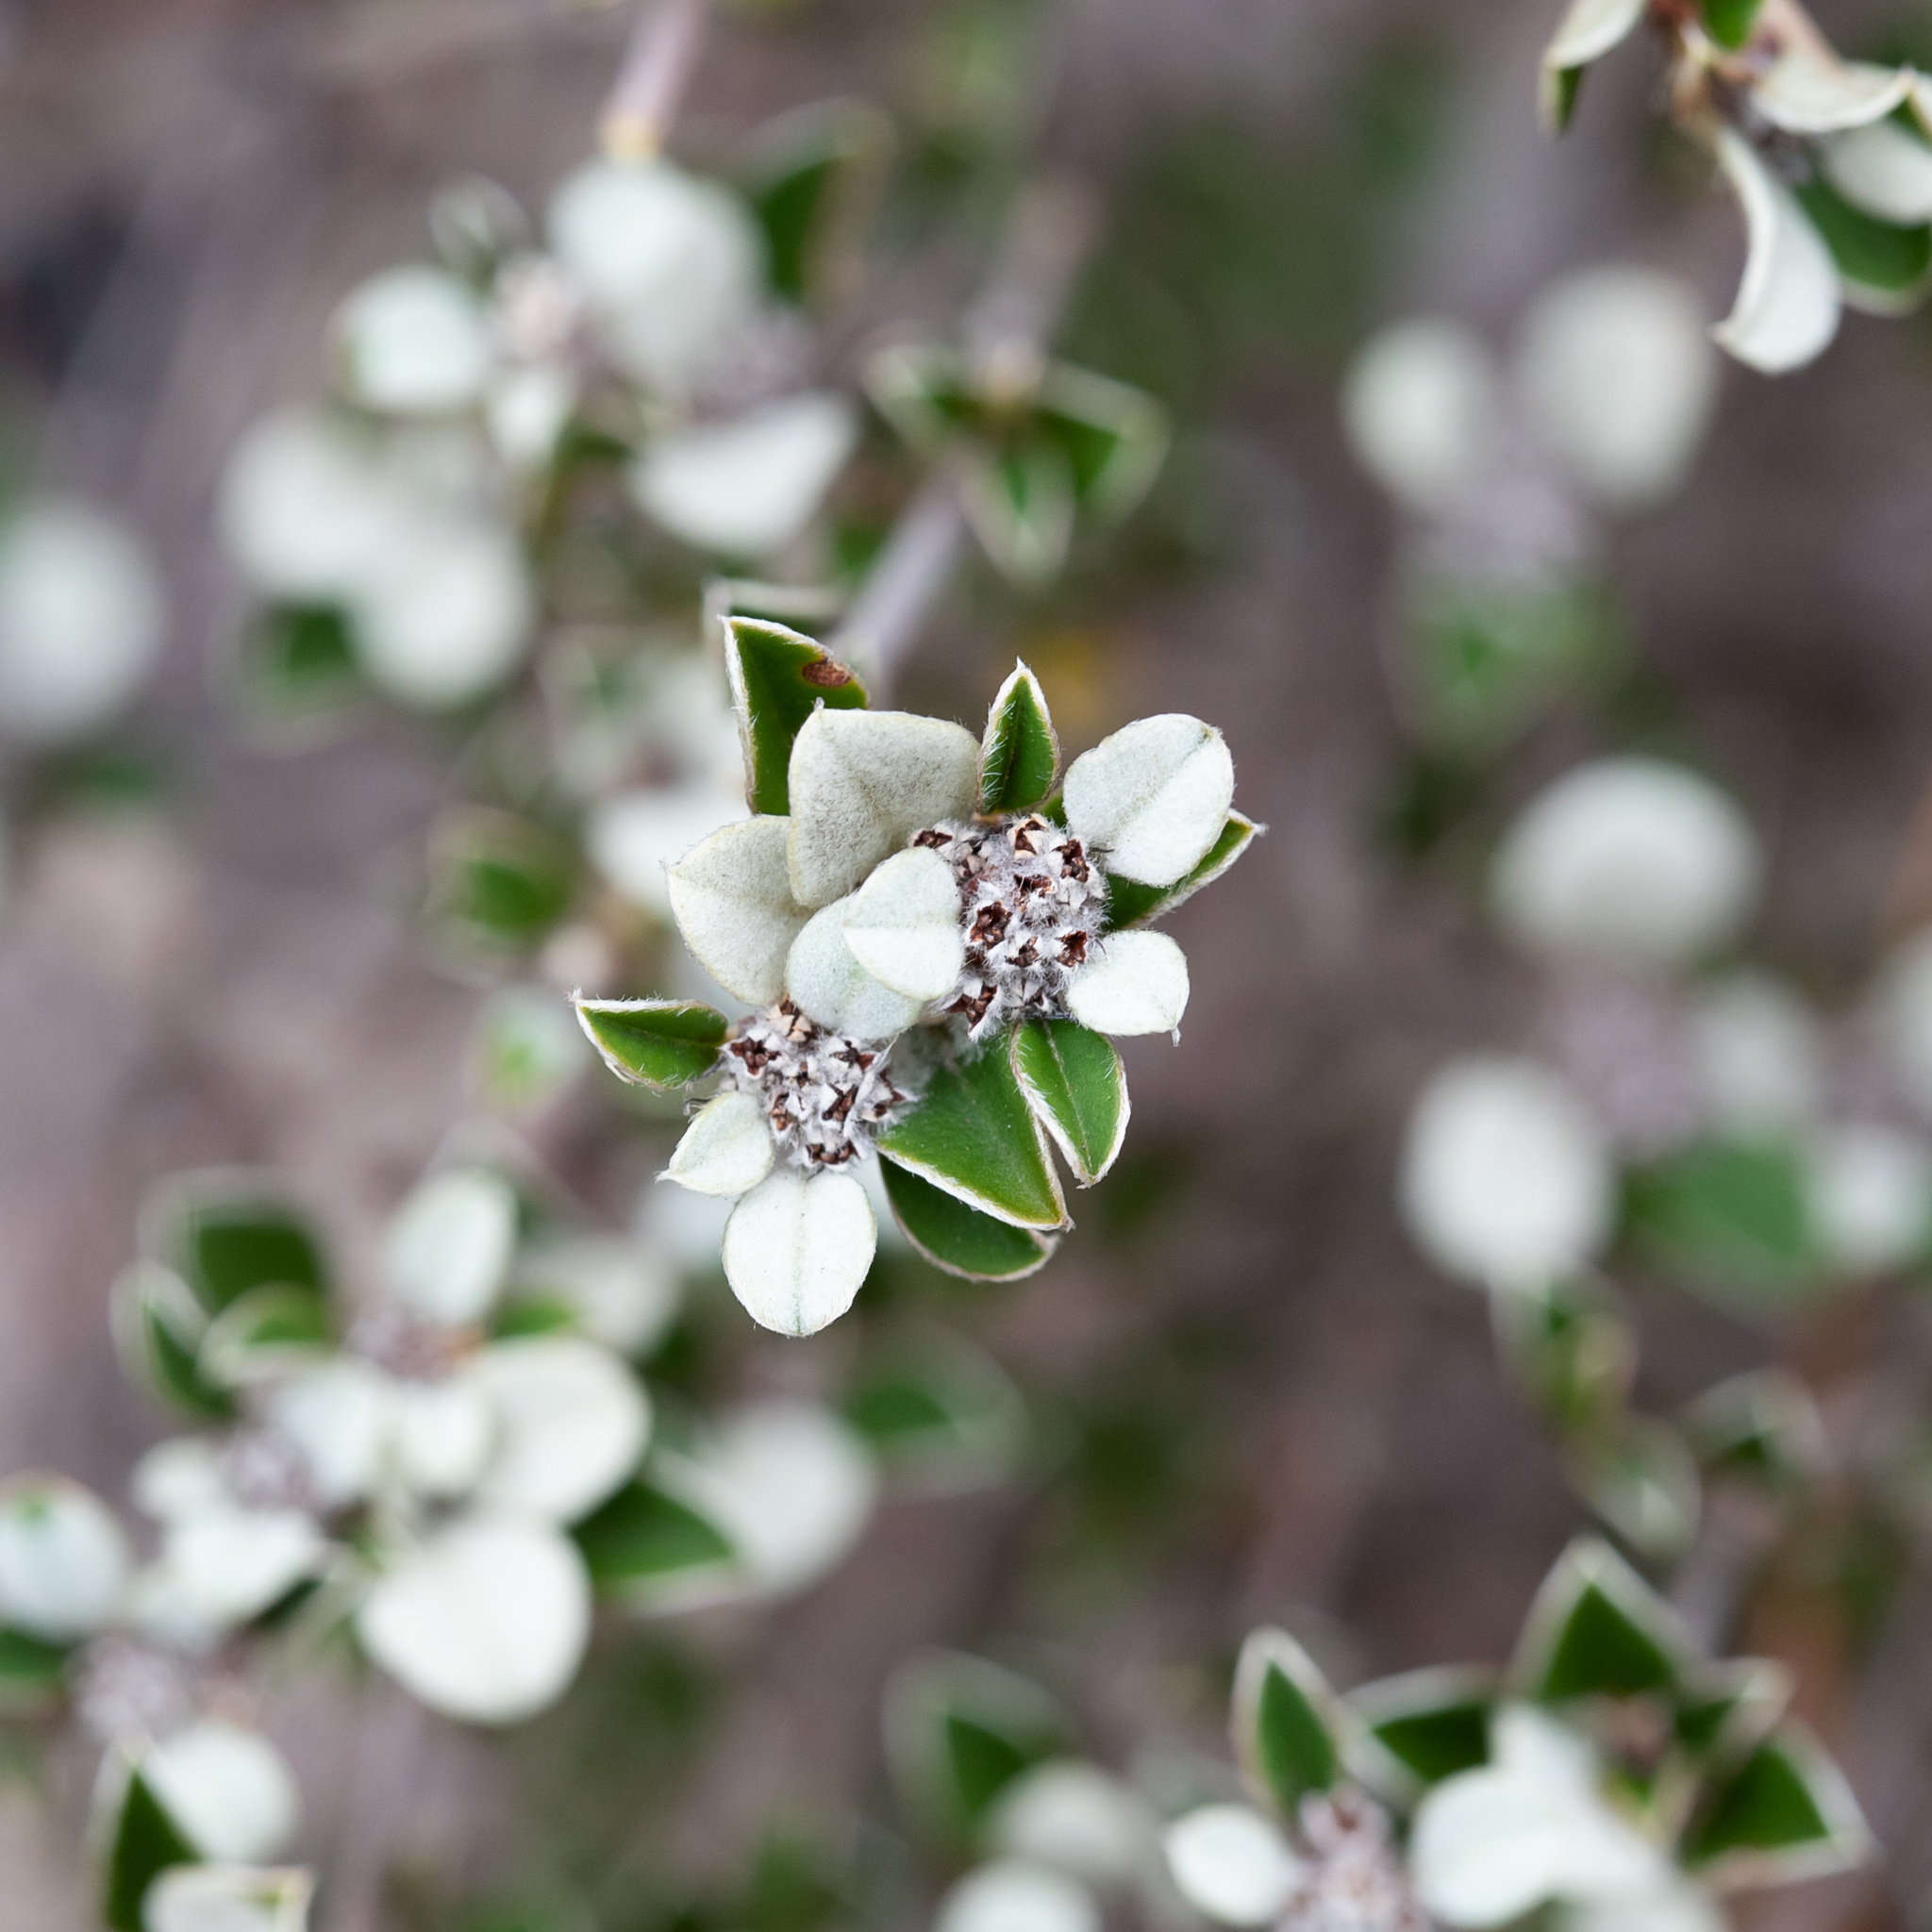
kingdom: Plantae
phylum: Tracheophyta
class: Magnoliopsida
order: Rosales
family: Rhamnaceae
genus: Cryptandra
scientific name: Cryptandra leucophracta
